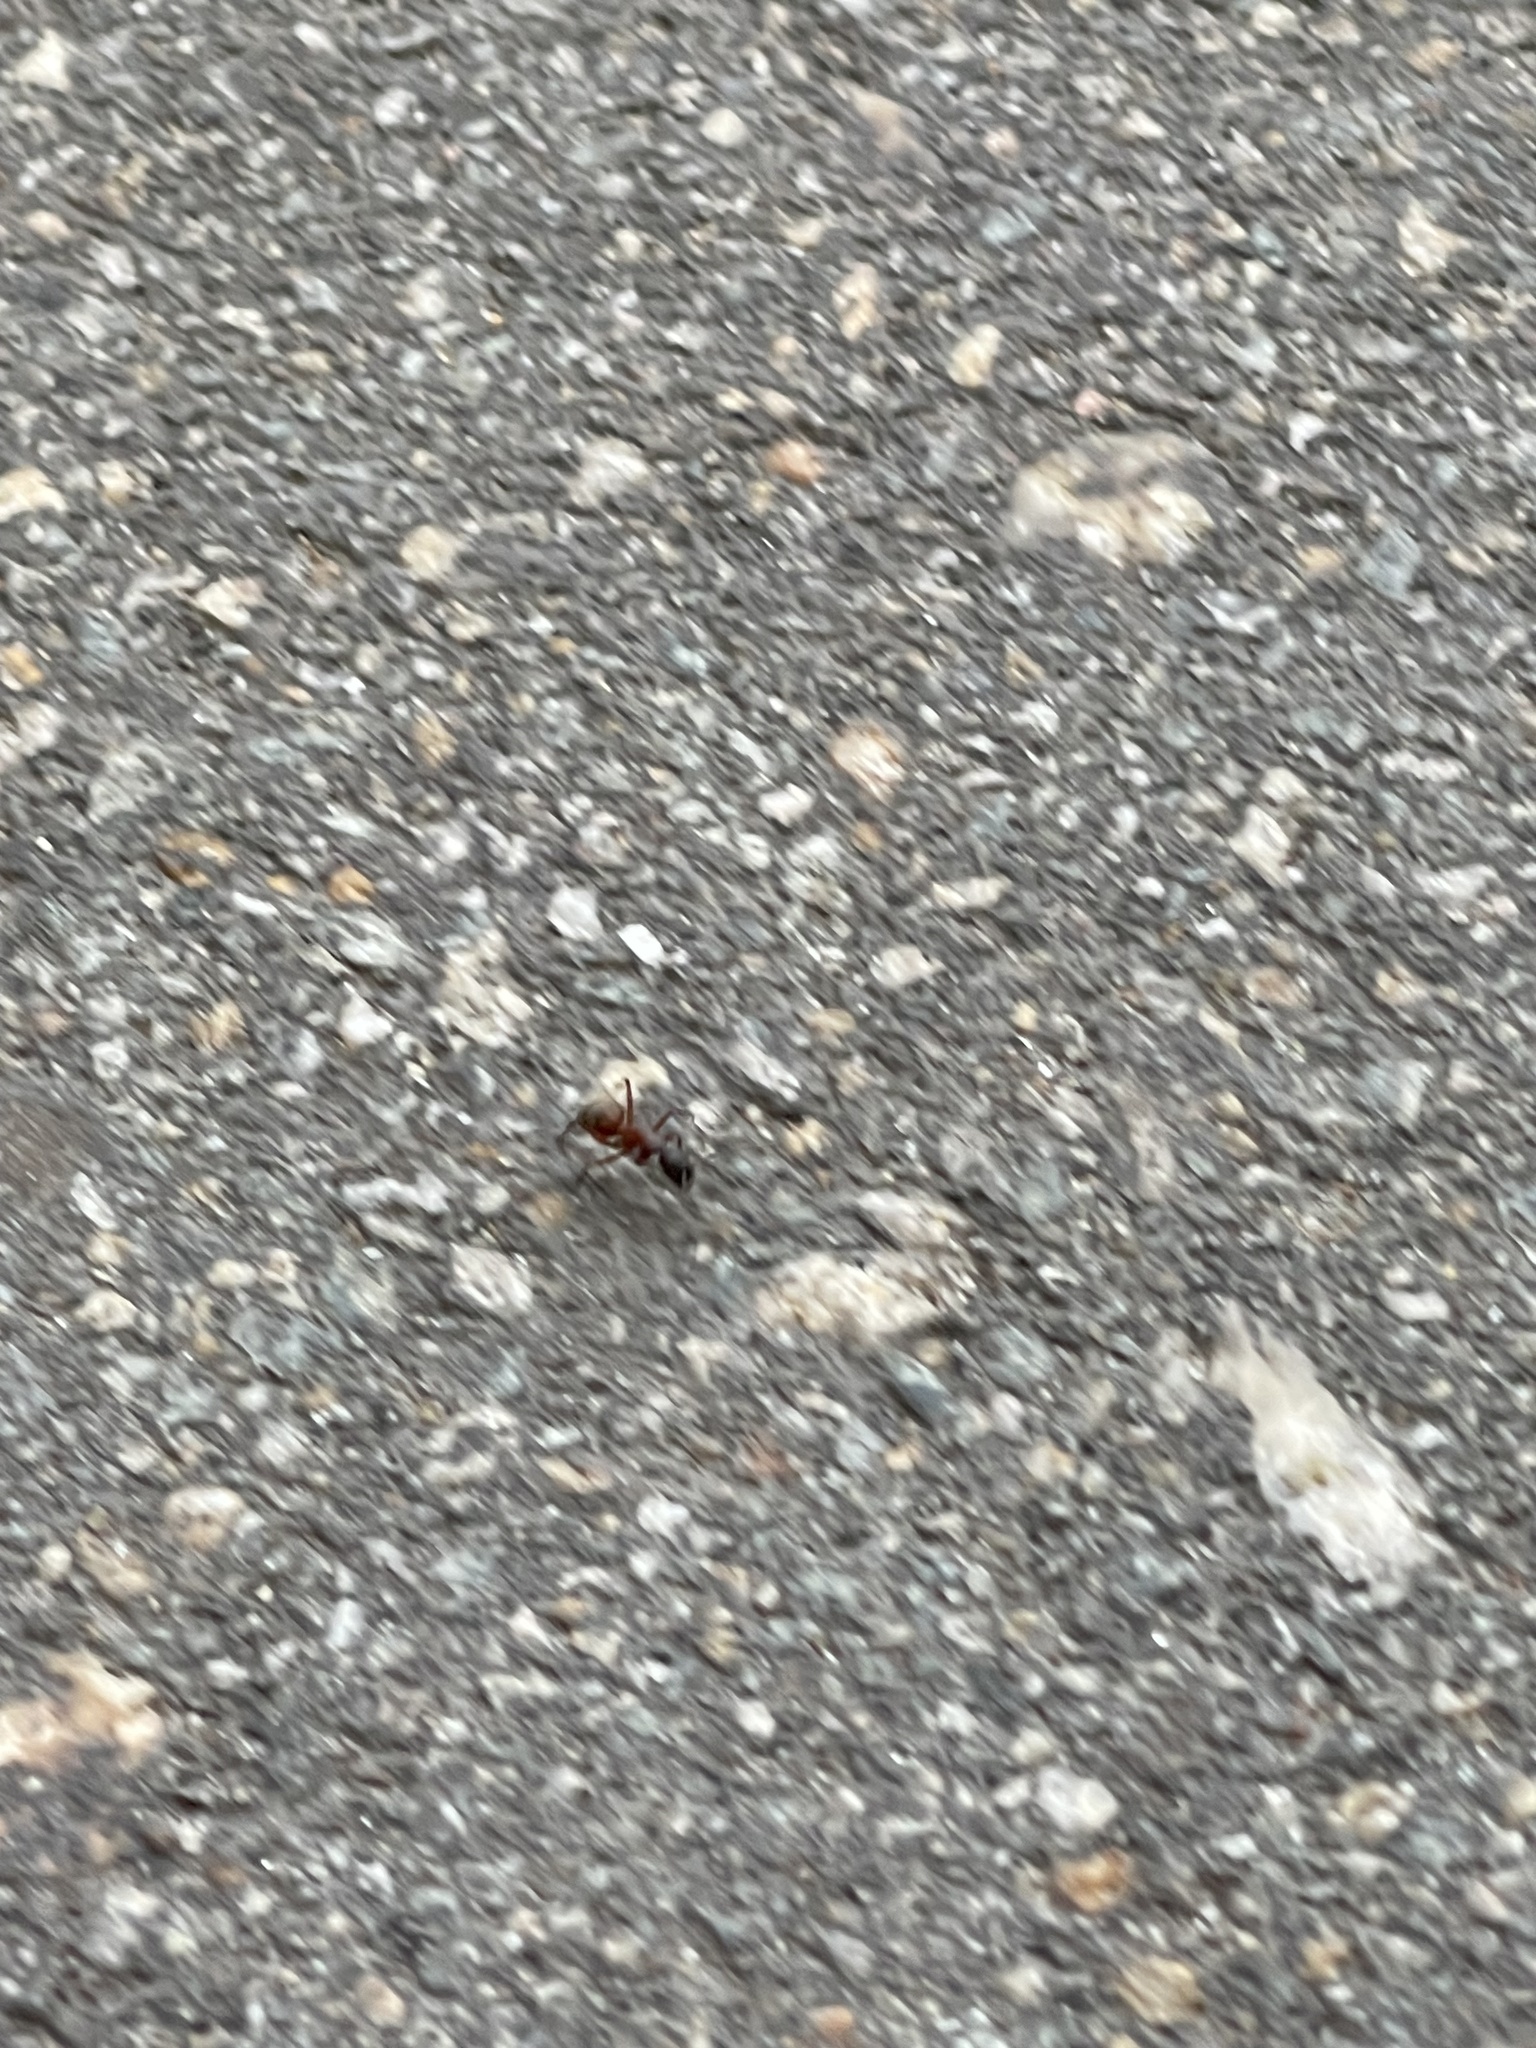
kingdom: Animalia
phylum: Arthropoda
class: Insecta
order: Hymenoptera
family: Formicidae
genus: Camponotus
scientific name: Camponotus chromaiodes
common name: Red carpenter ant
